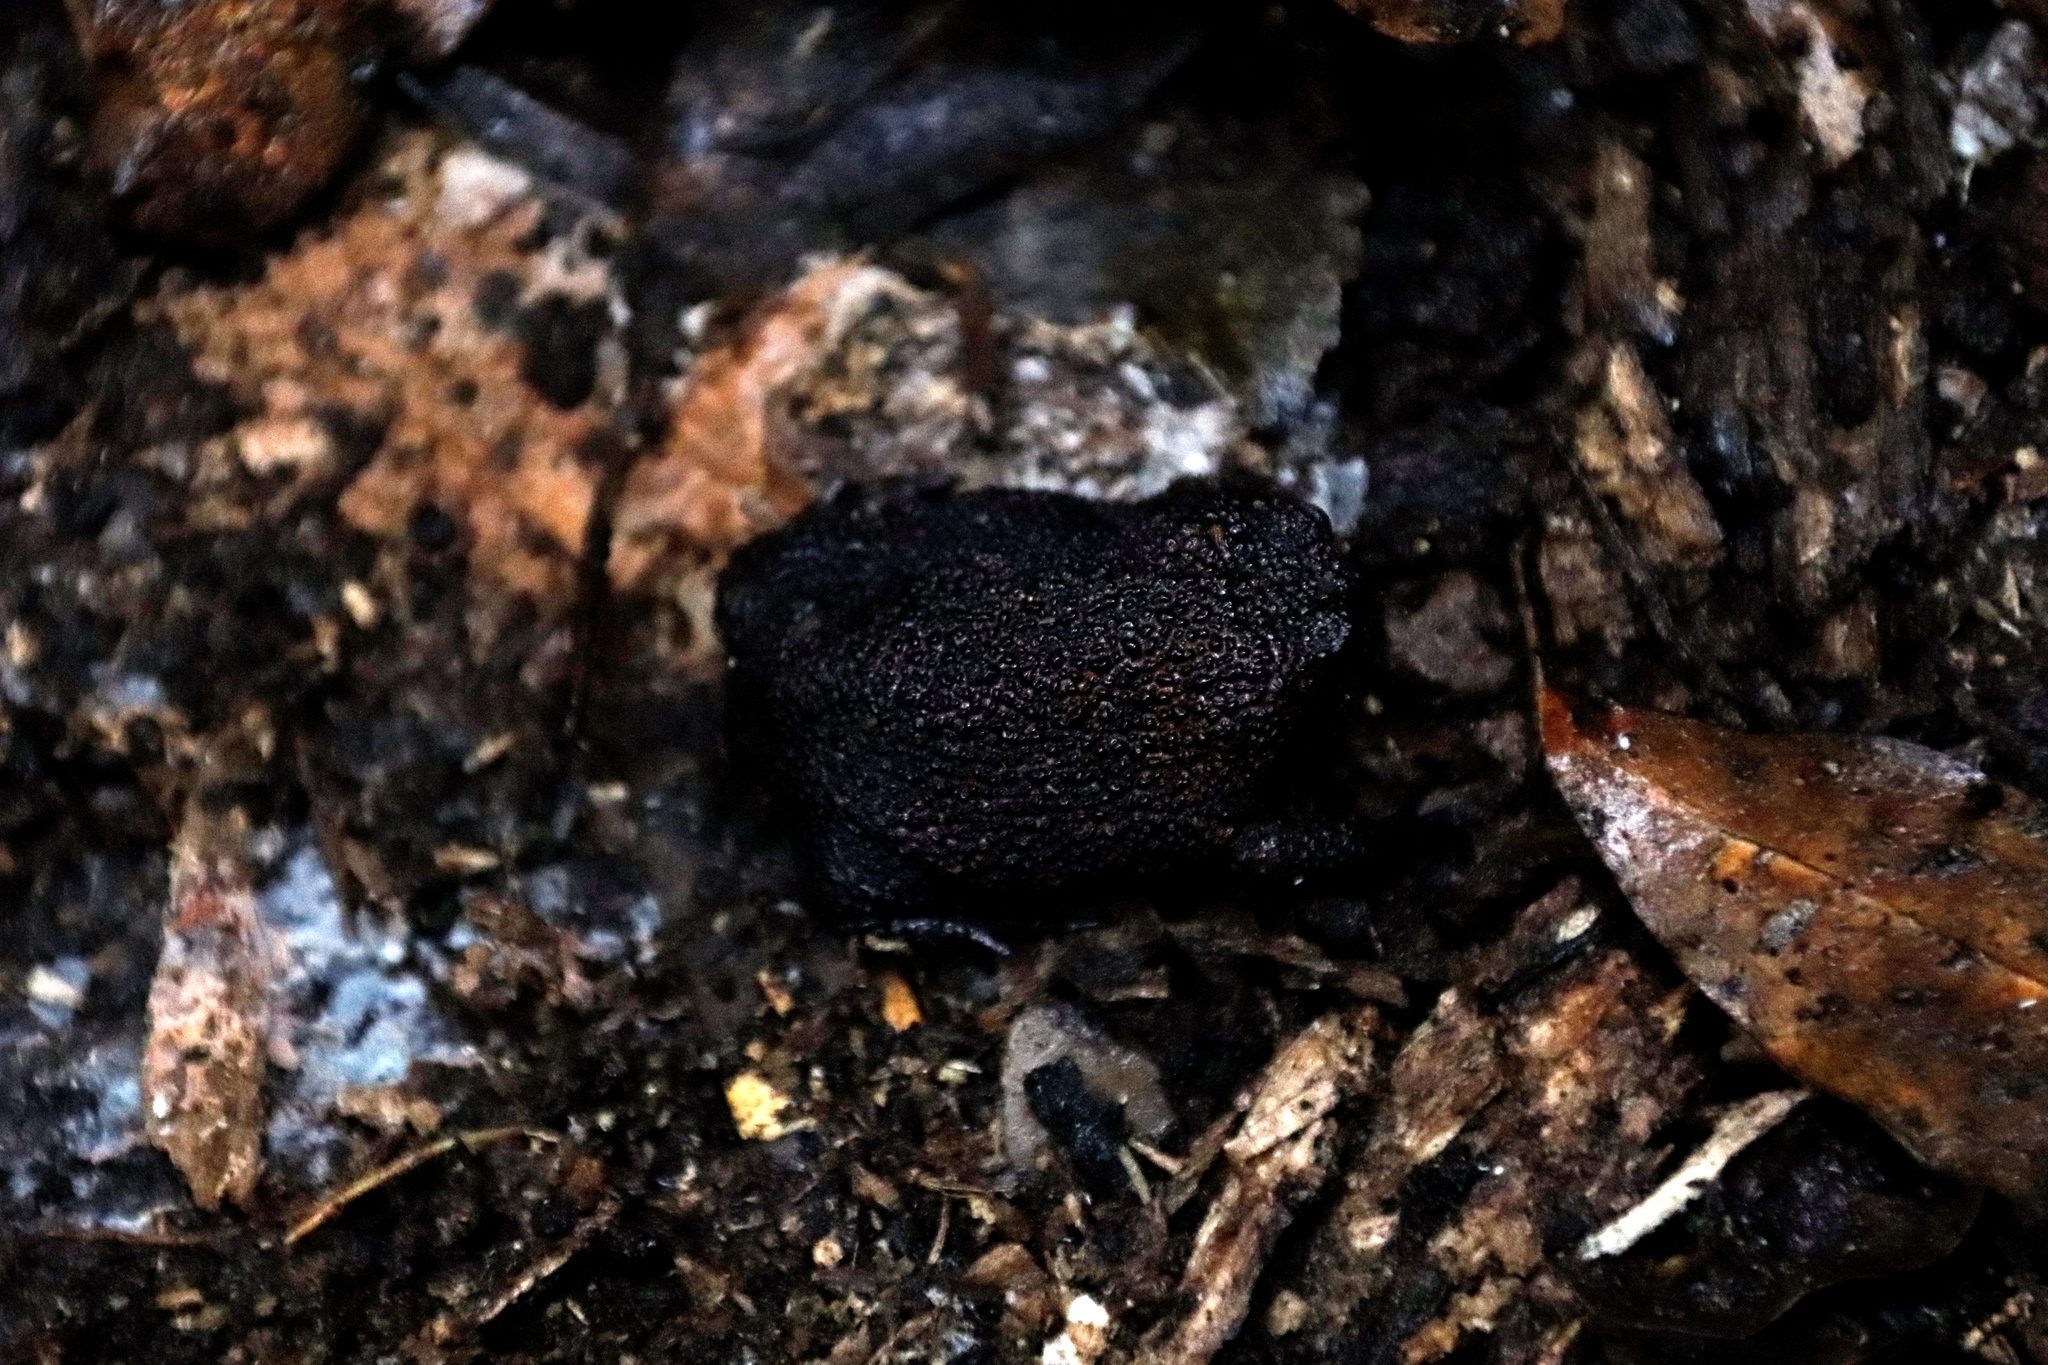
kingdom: Animalia
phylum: Chordata
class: Amphibia
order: Anura
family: Brevicipitidae
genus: Breviceps
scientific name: Breviceps acutirostris
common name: Strawberry rain frog
